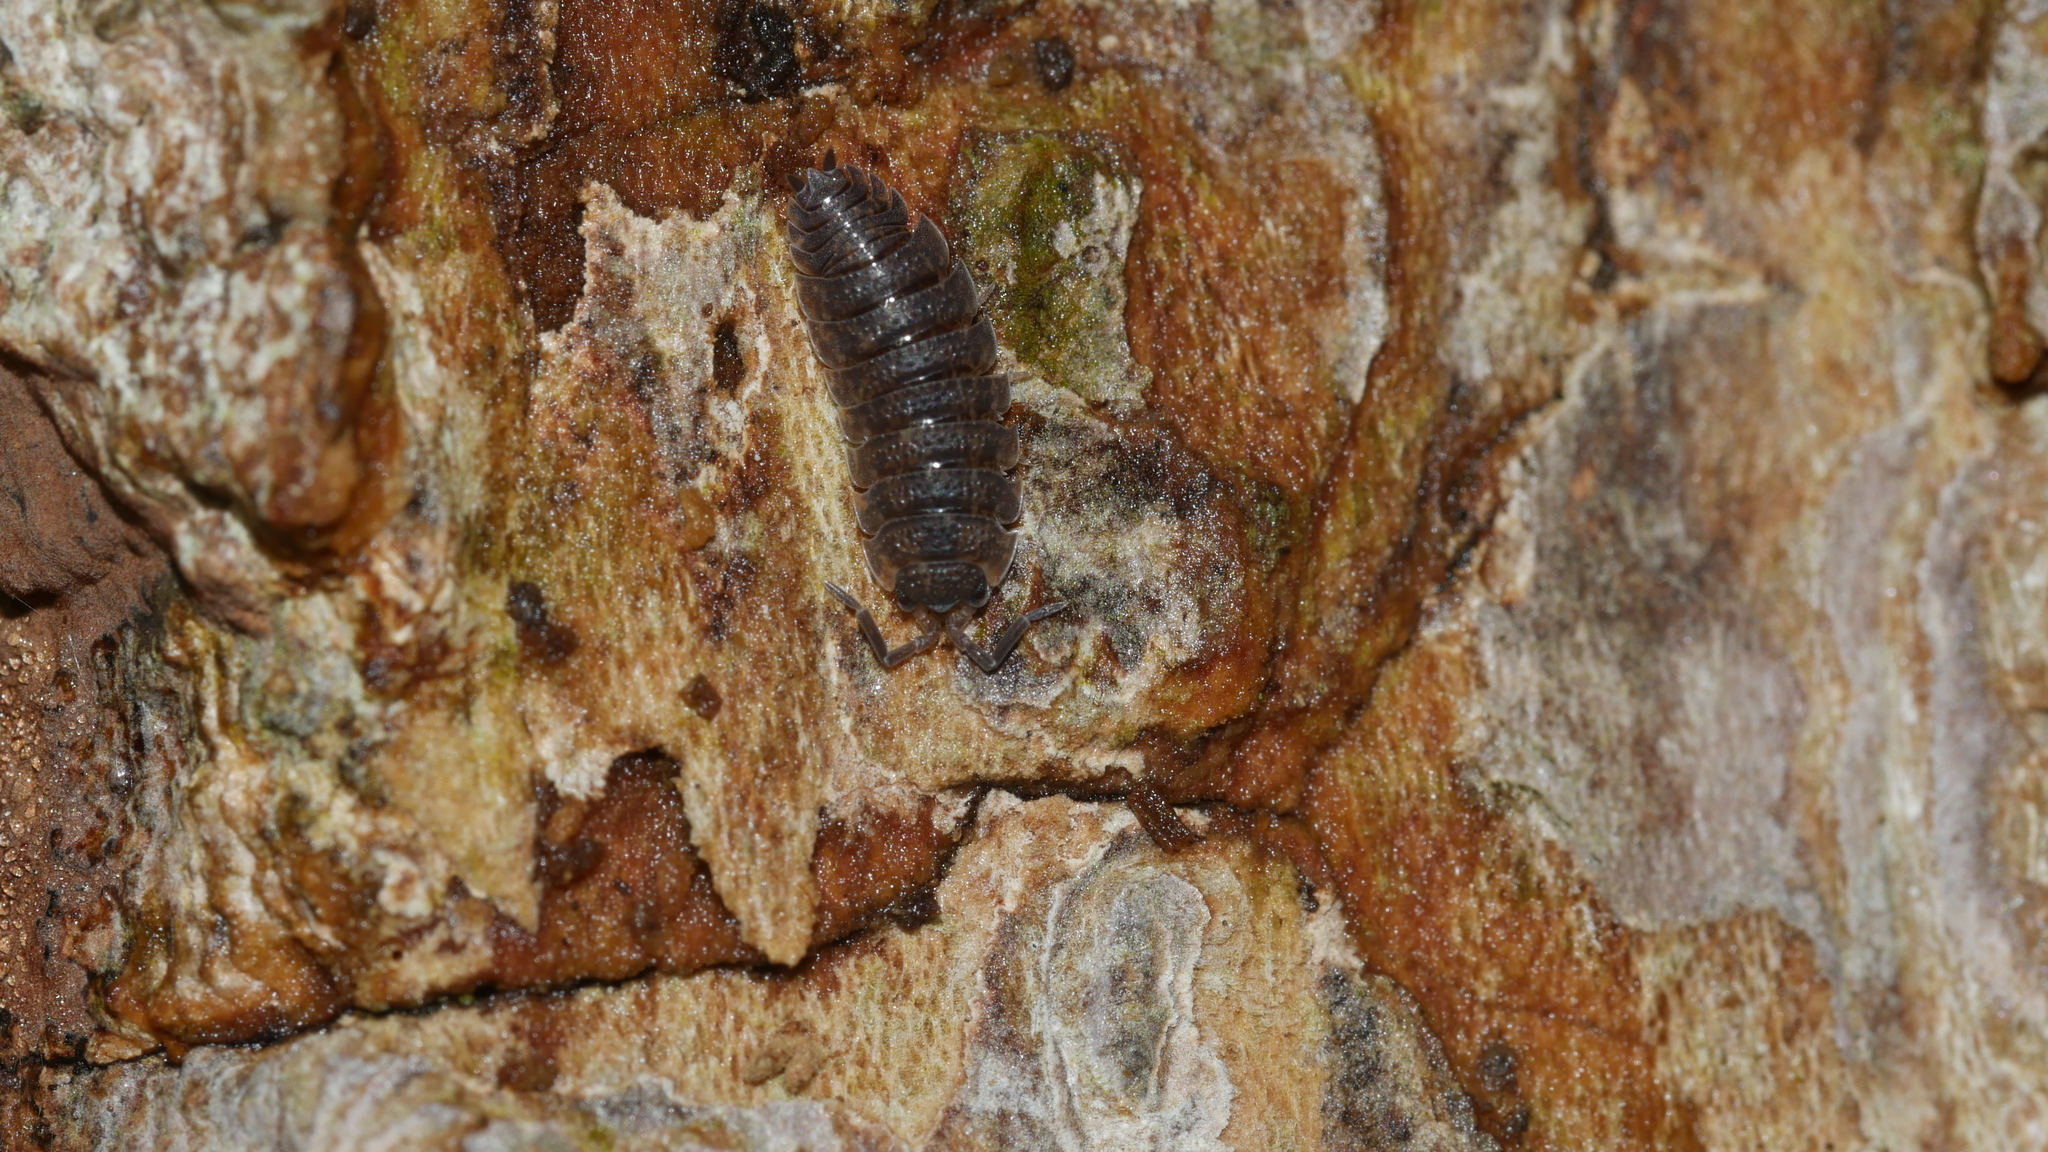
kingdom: Animalia
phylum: Arthropoda
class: Malacostraca
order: Isopoda
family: Porcellionidae
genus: Porcellio
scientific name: Porcellio scaber
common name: Common rough woodlouse
